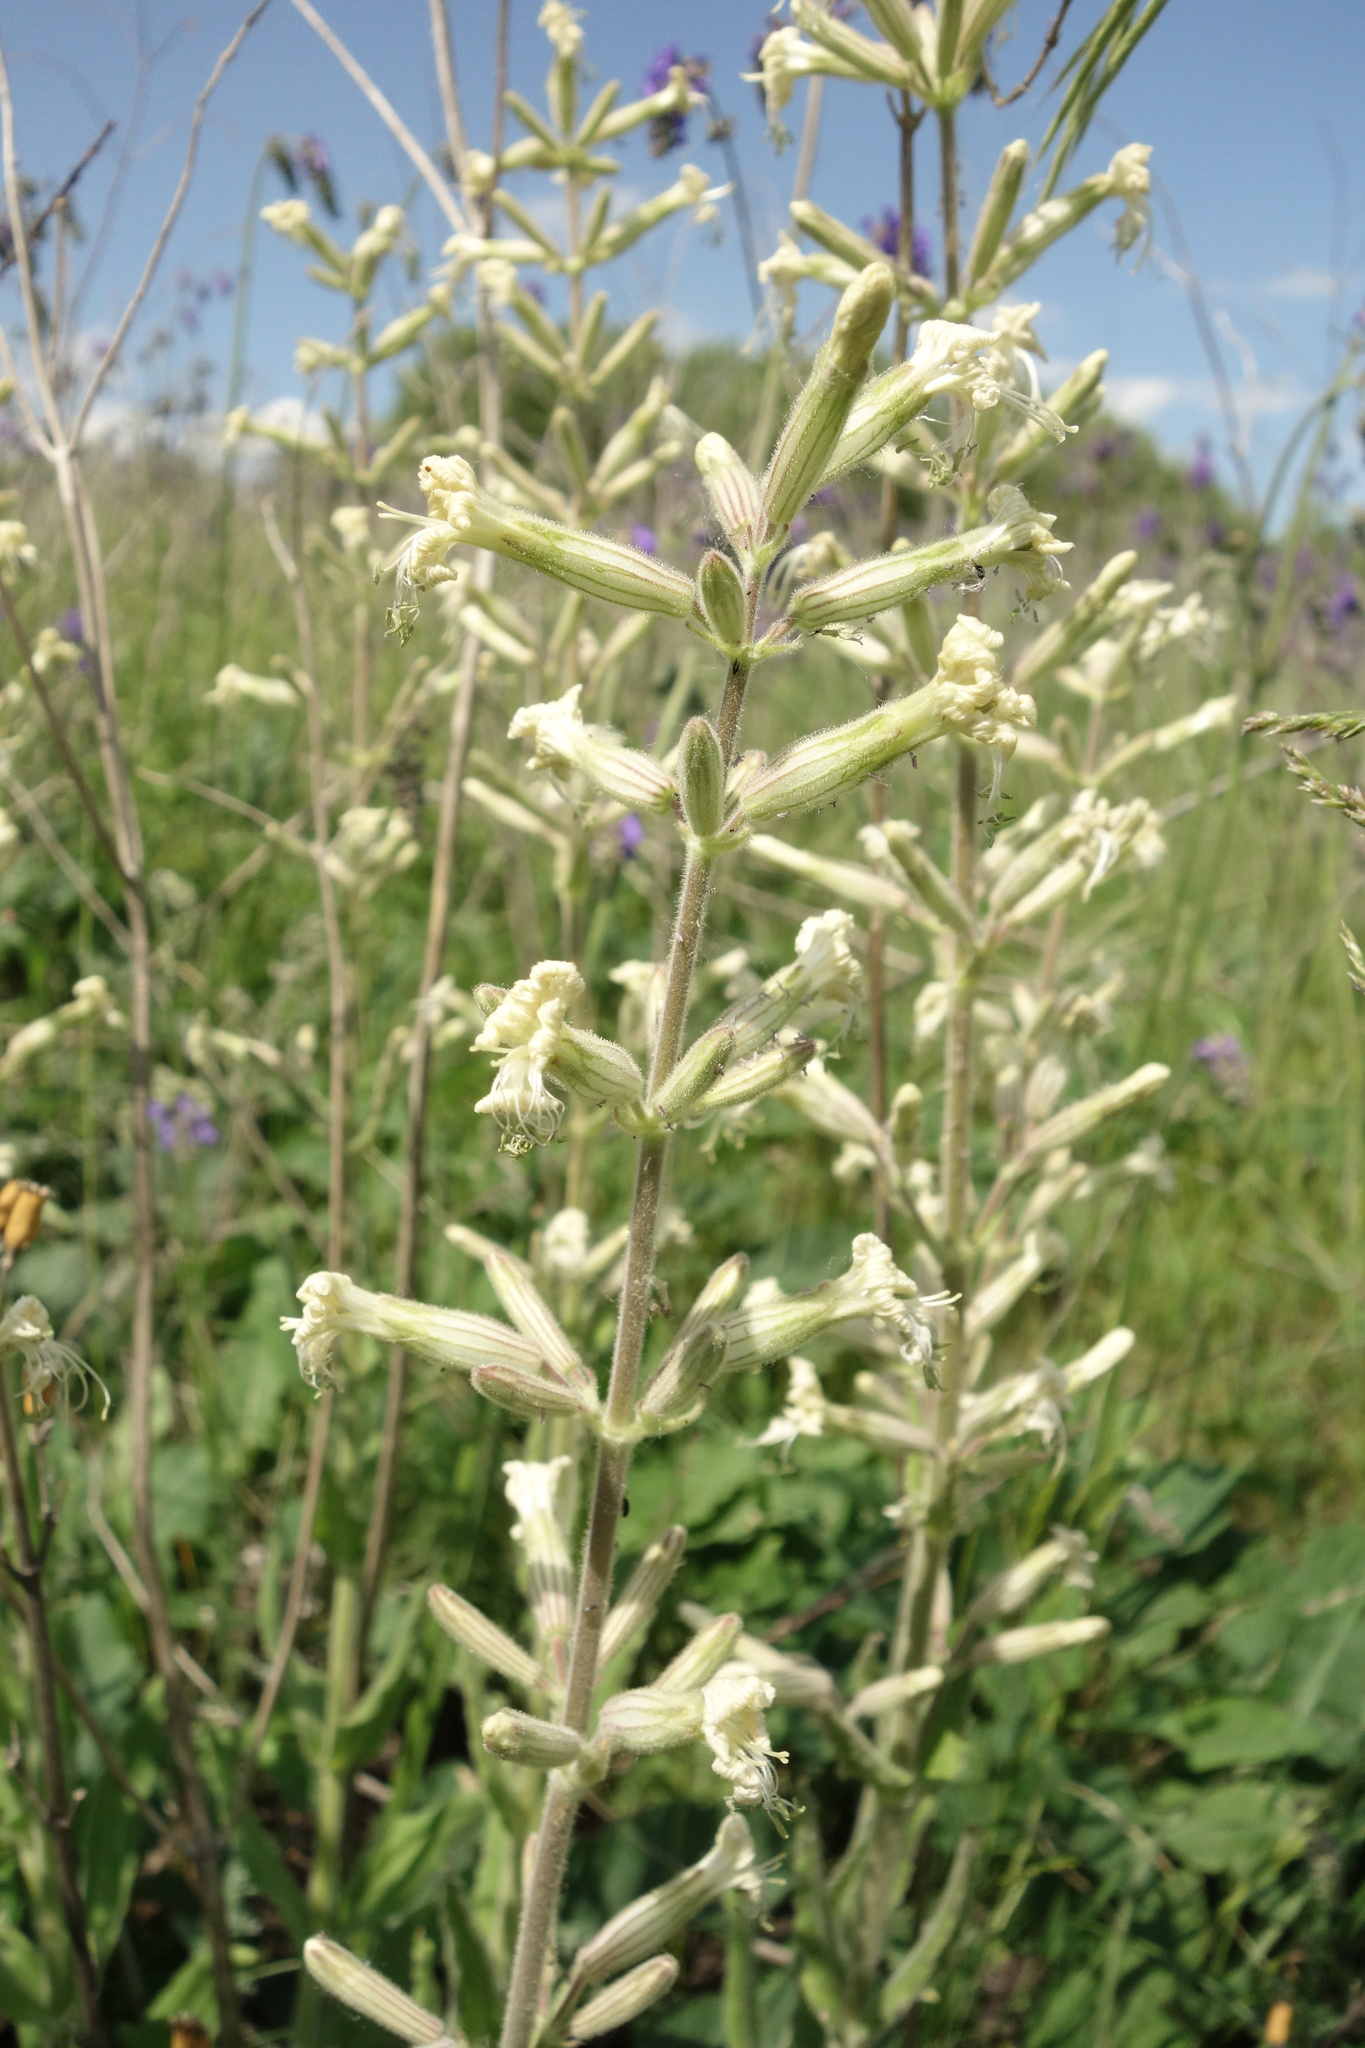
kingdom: Plantae
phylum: Tracheophyta
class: Magnoliopsida
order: Caryophyllales
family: Caryophyllaceae
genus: Silene
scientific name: Silene viscosa
